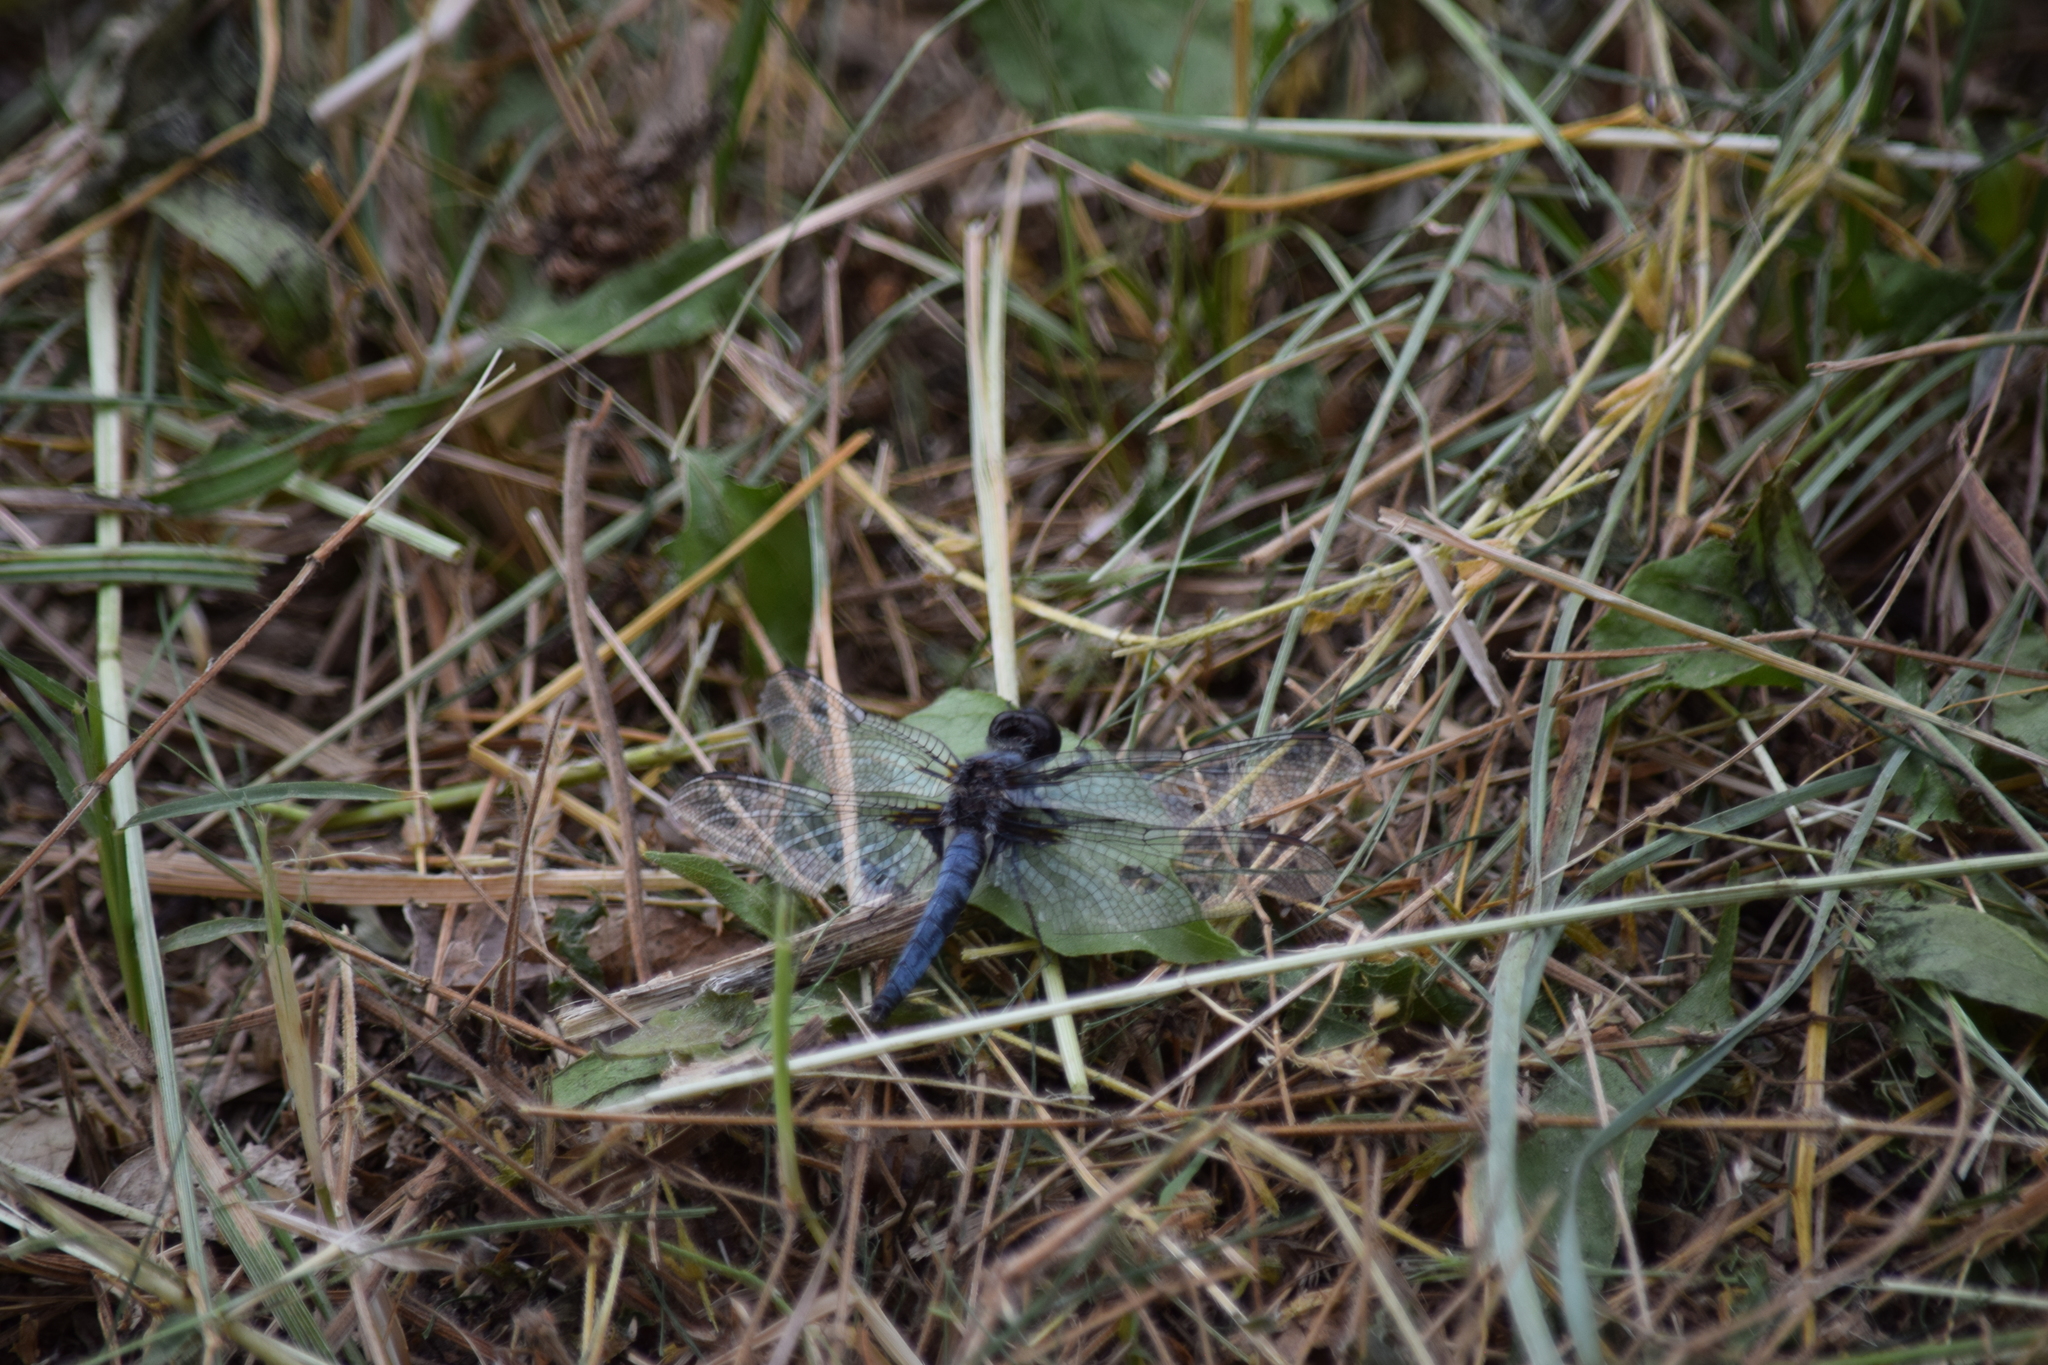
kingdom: Animalia
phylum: Arthropoda
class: Insecta
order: Odonata
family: Libellulidae
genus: Ladona
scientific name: Ladona deplanata
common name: Blue corporal
